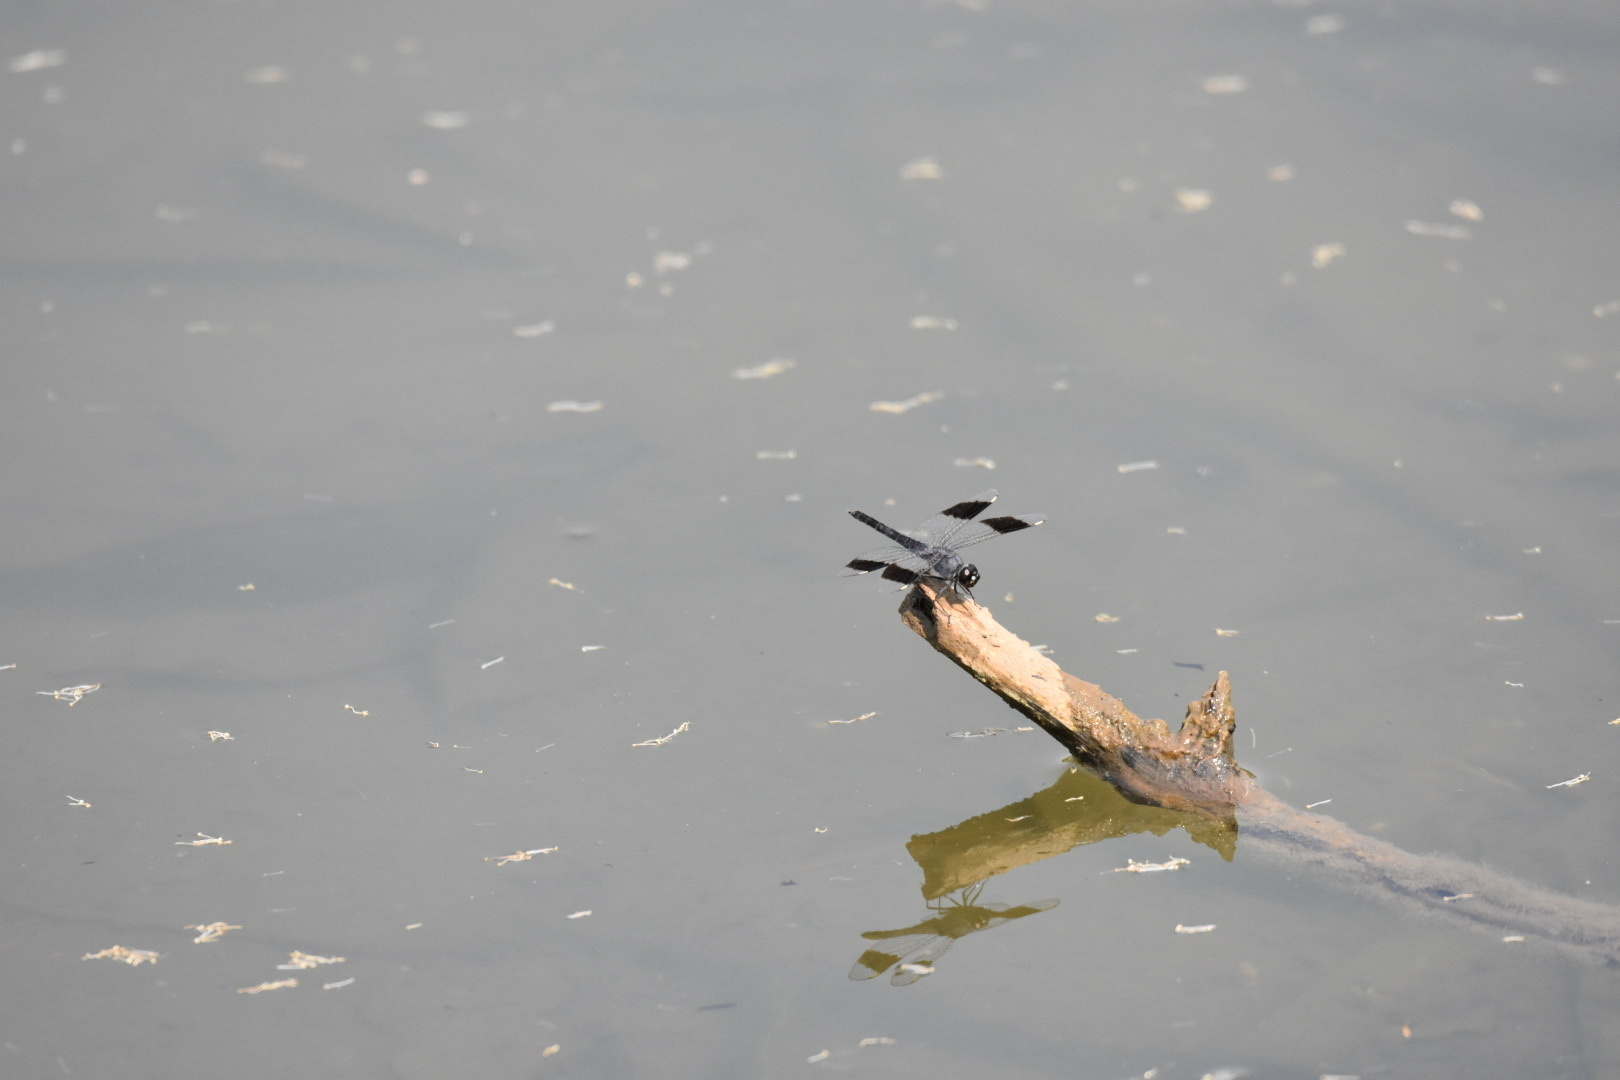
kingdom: Animalia
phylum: Arthropoda
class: Insecta
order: Odonata
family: Libellulidae
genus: Brachythemis
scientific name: Brachythemis leucosticta
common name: Banded groundling
